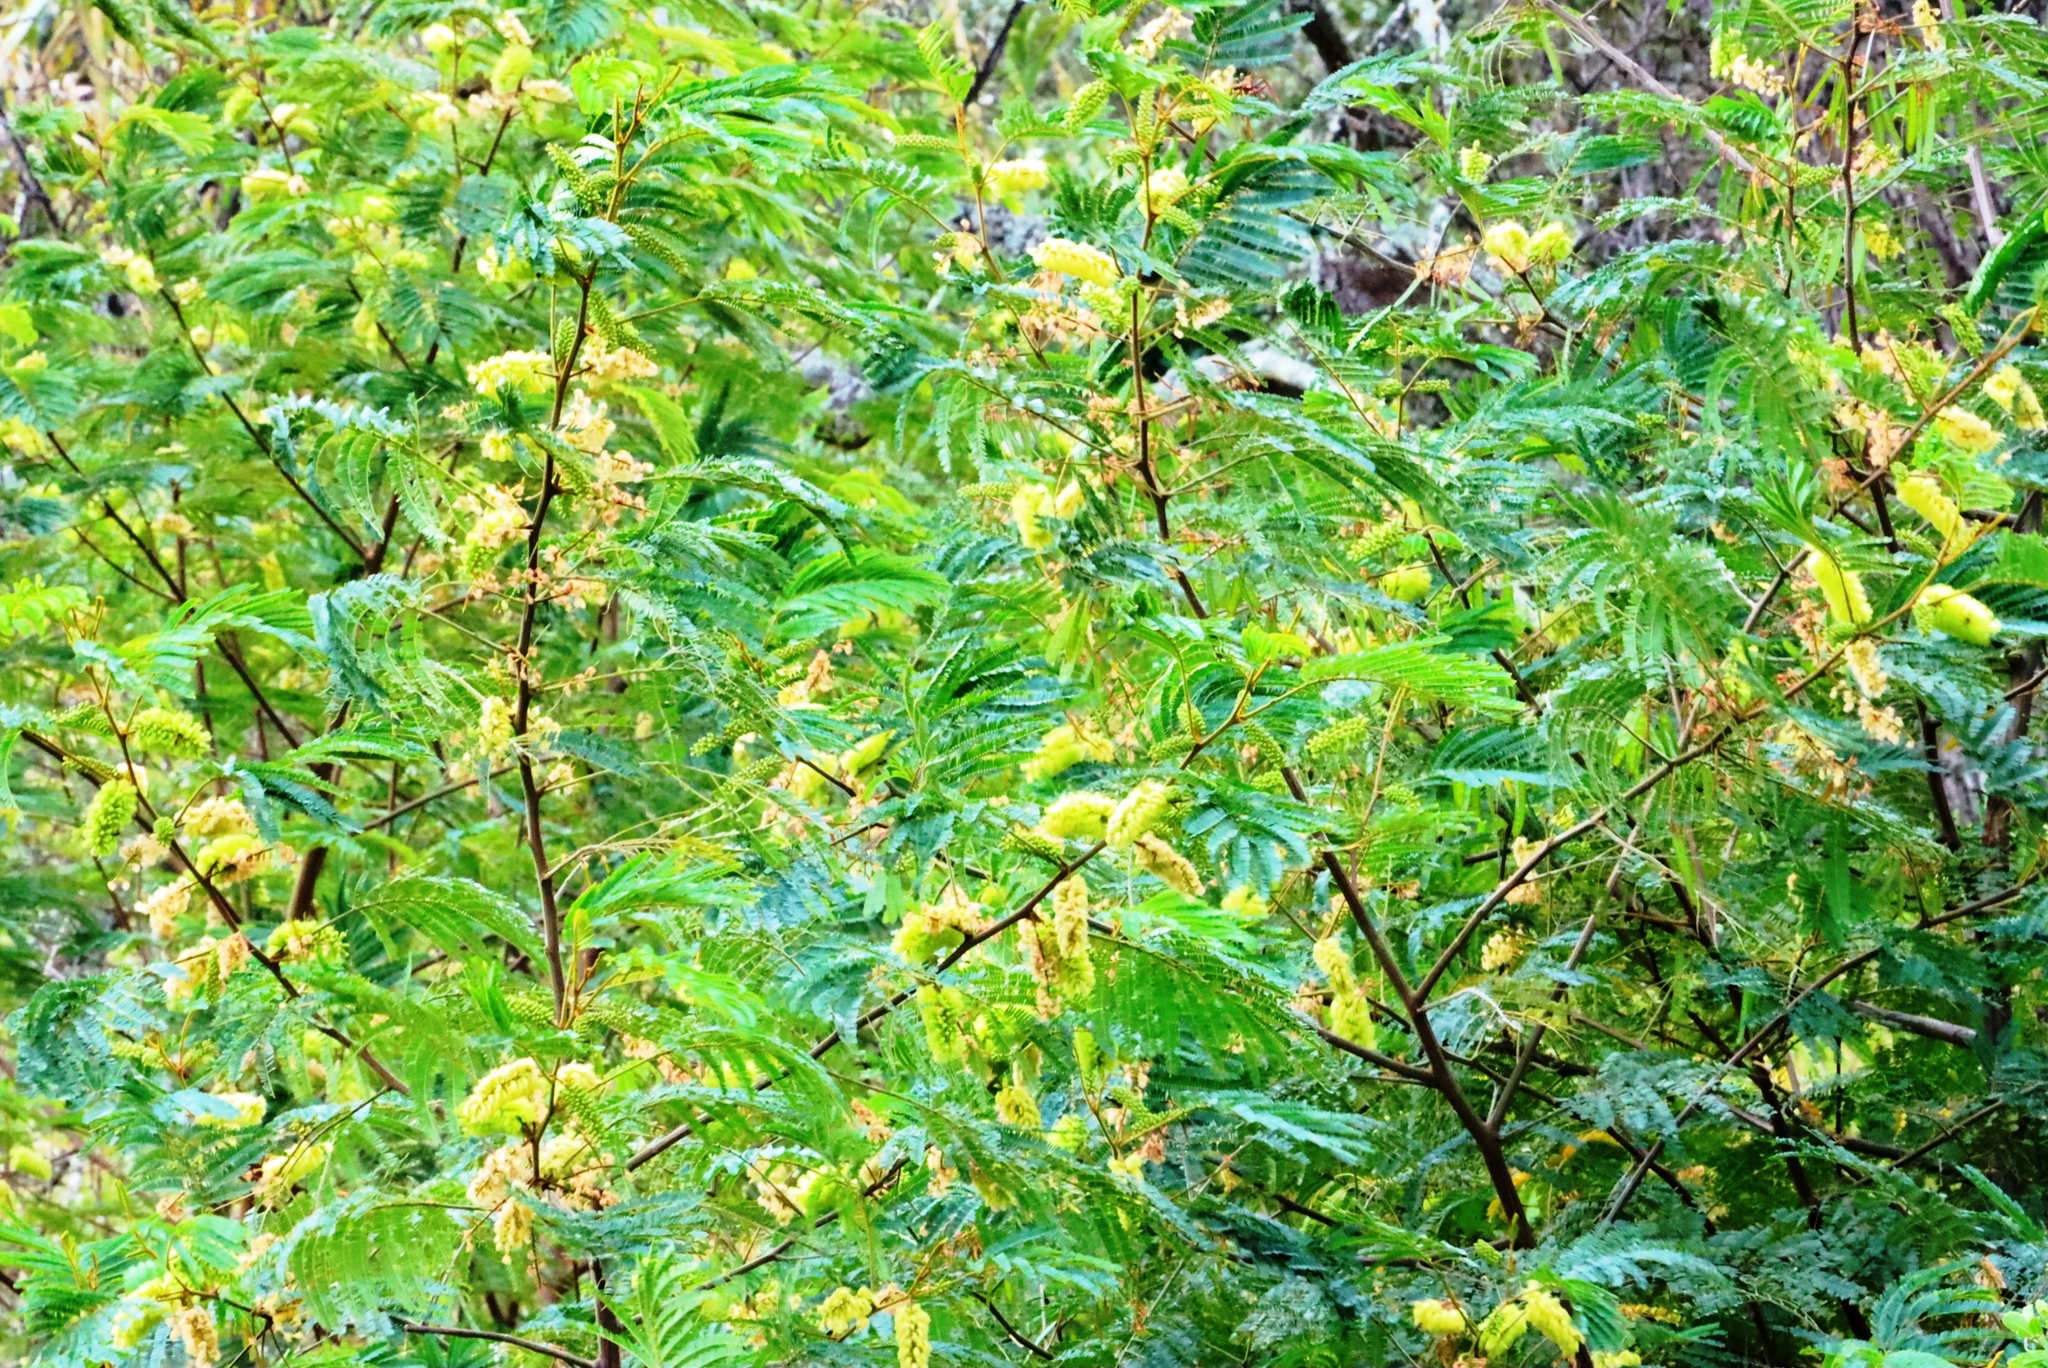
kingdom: Plantae
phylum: Tracheophyta
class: Magnoliopsida
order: Fabales
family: Fabaceae
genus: Paraserianthes
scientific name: Paraserianthes lophantha
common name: Plume albizia
